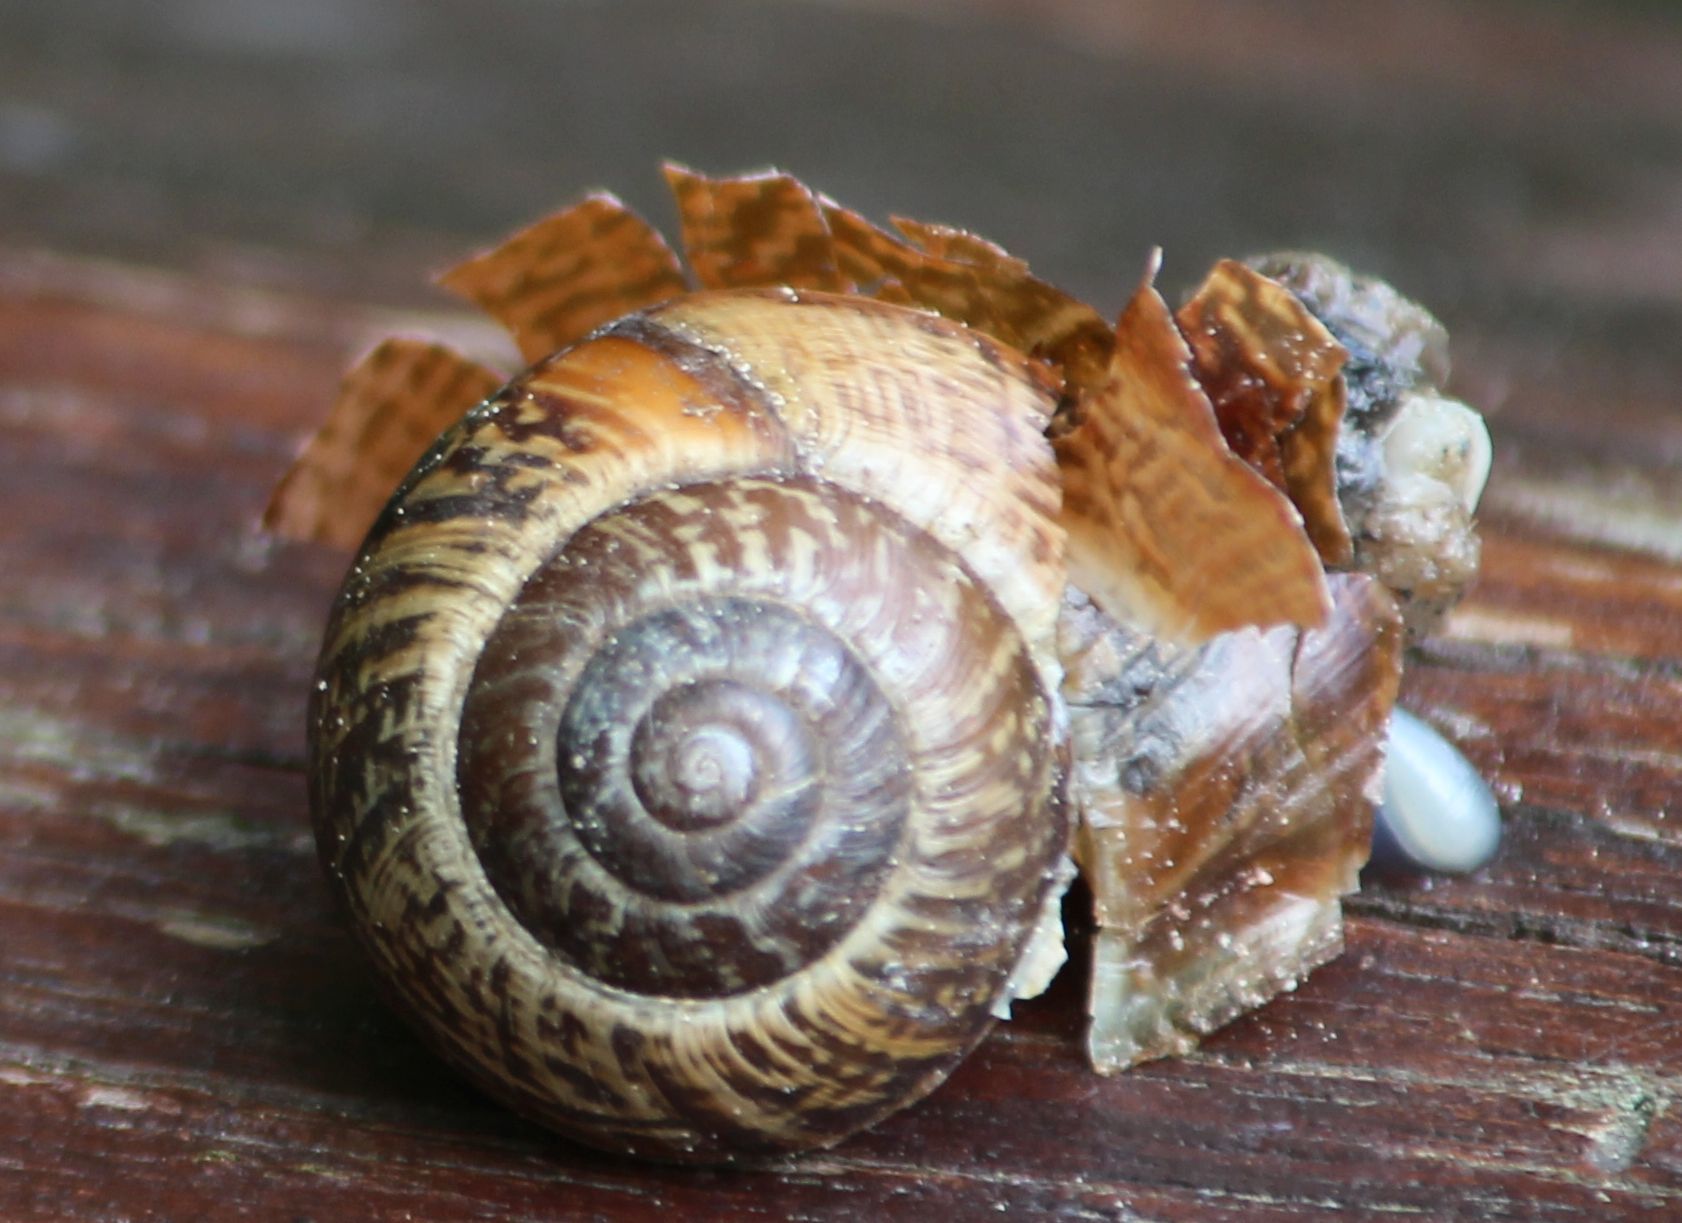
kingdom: Animalia
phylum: Mollusca
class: Gastropoda
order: Stylommatophora
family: Helicidae
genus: Arianta
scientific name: Arianta arbustorum
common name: Copse snail
